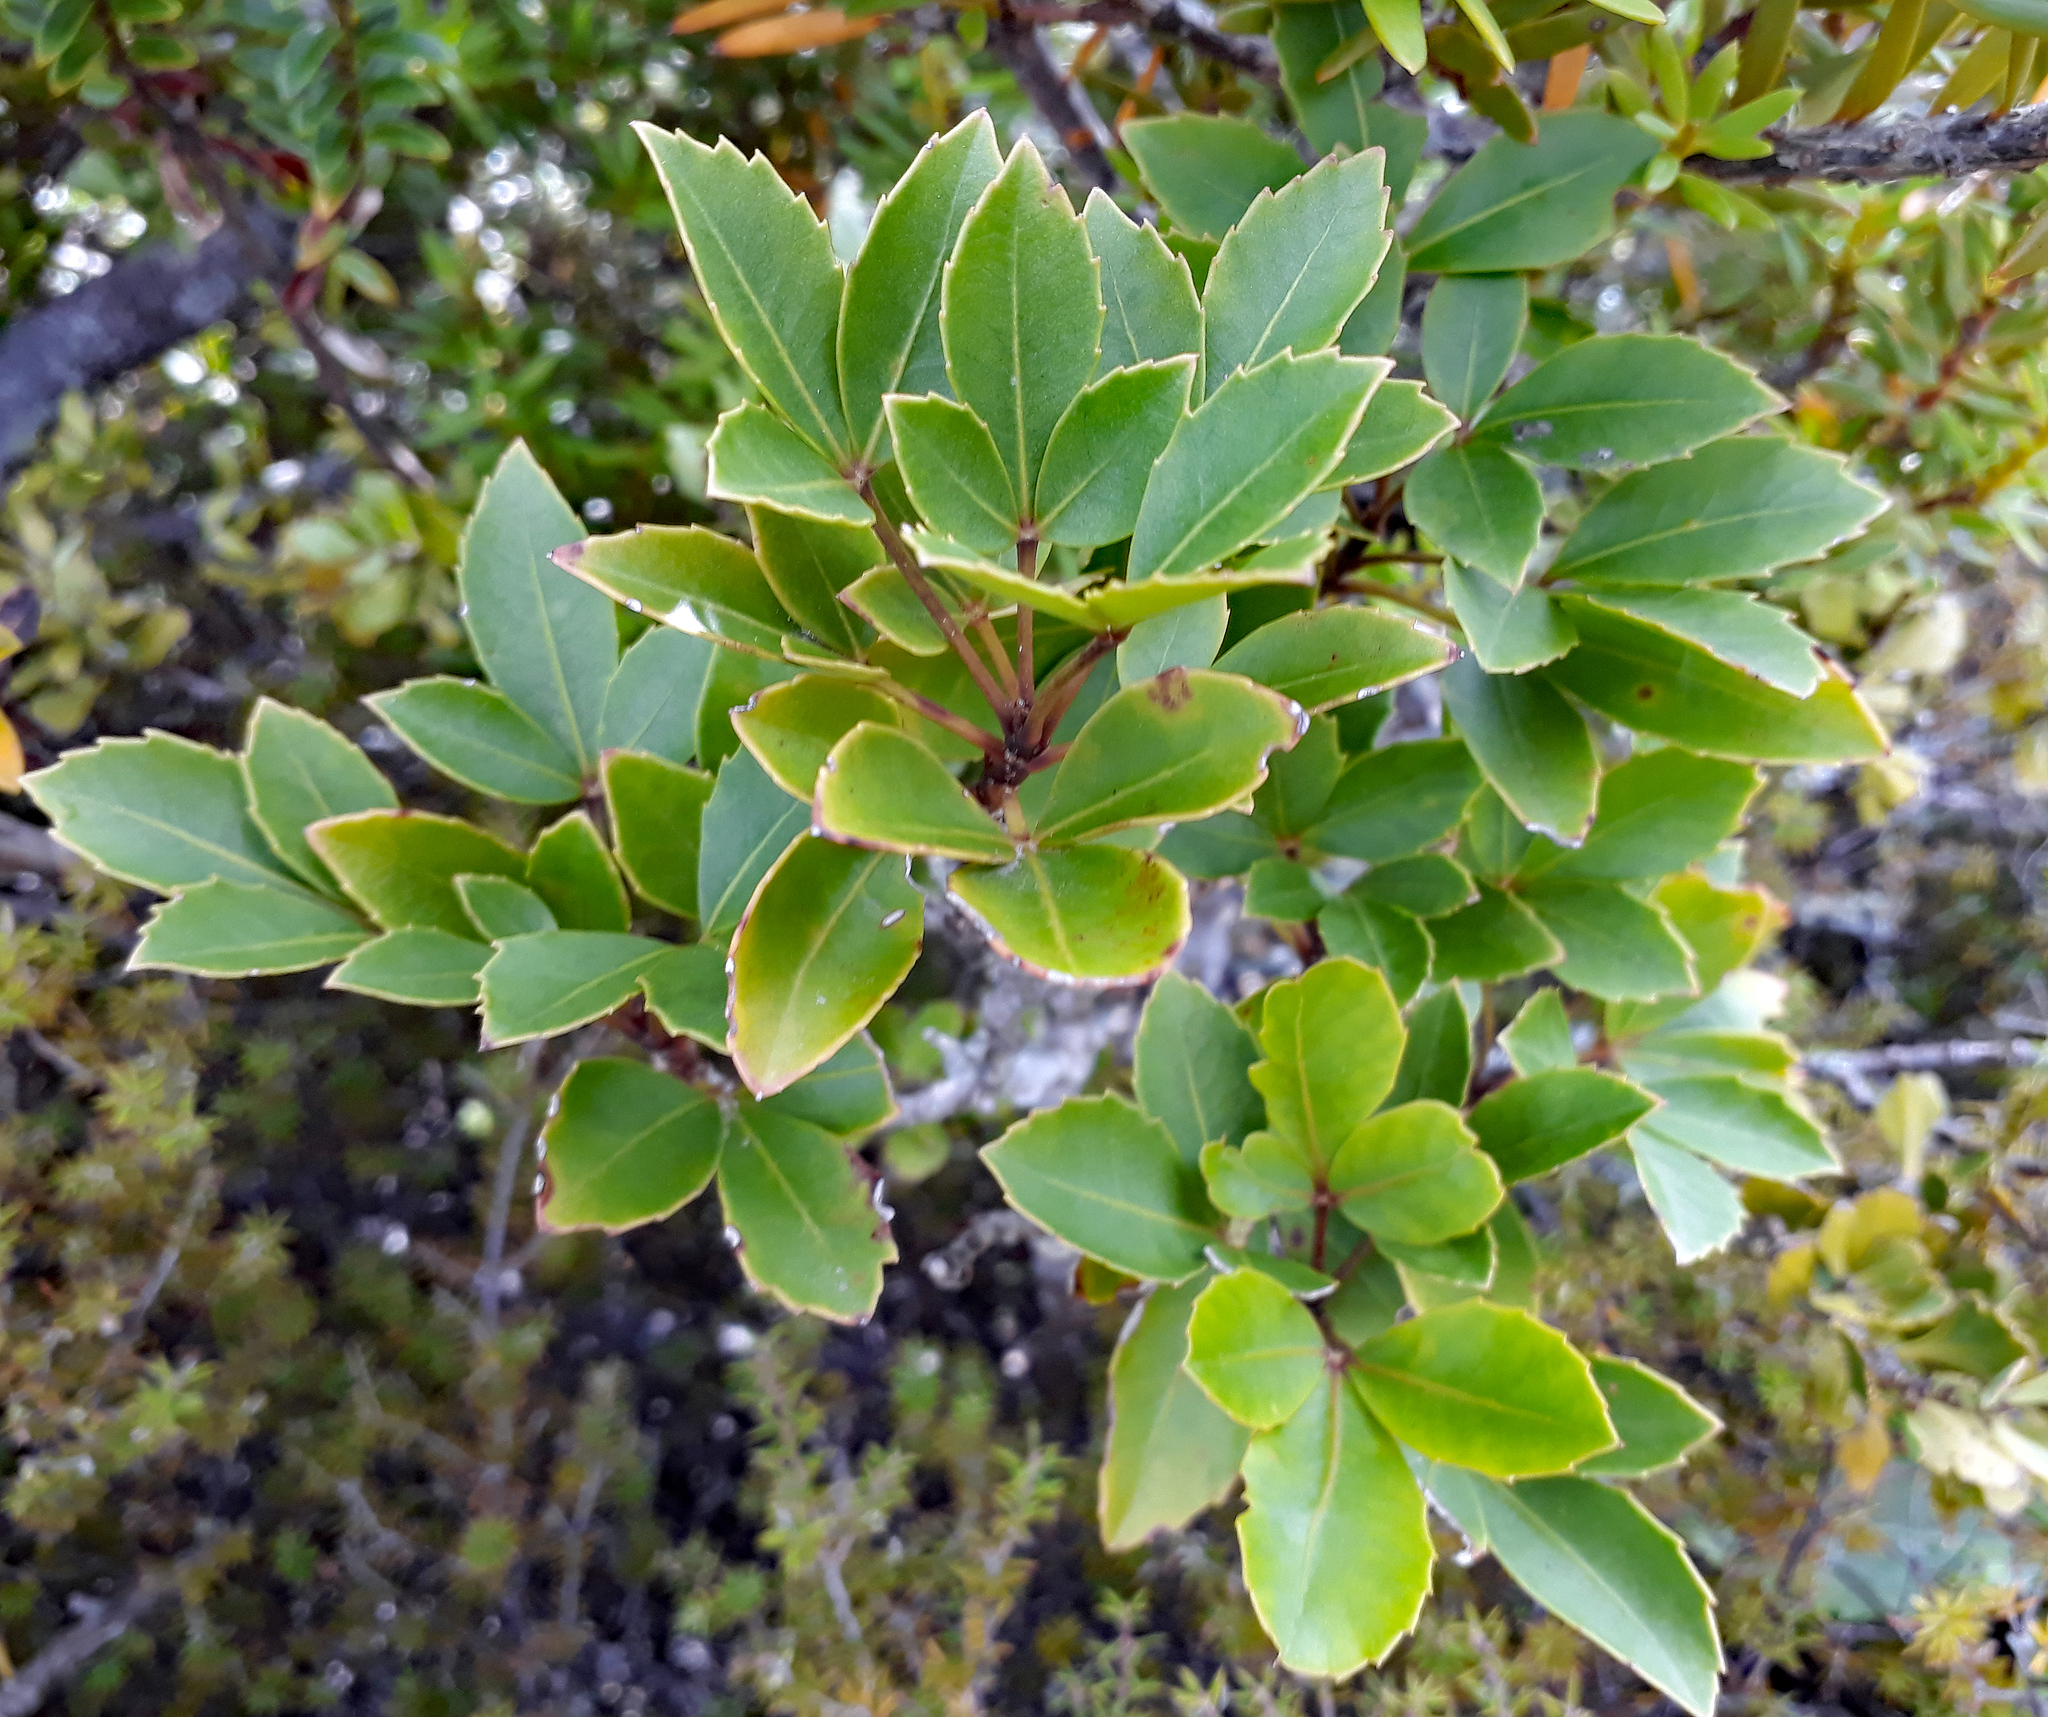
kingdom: Plantae
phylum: Tracheophyta
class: Magnoliopsida
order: Apiales
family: Araliaceae
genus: Raukaua
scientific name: Raukaua simplex
